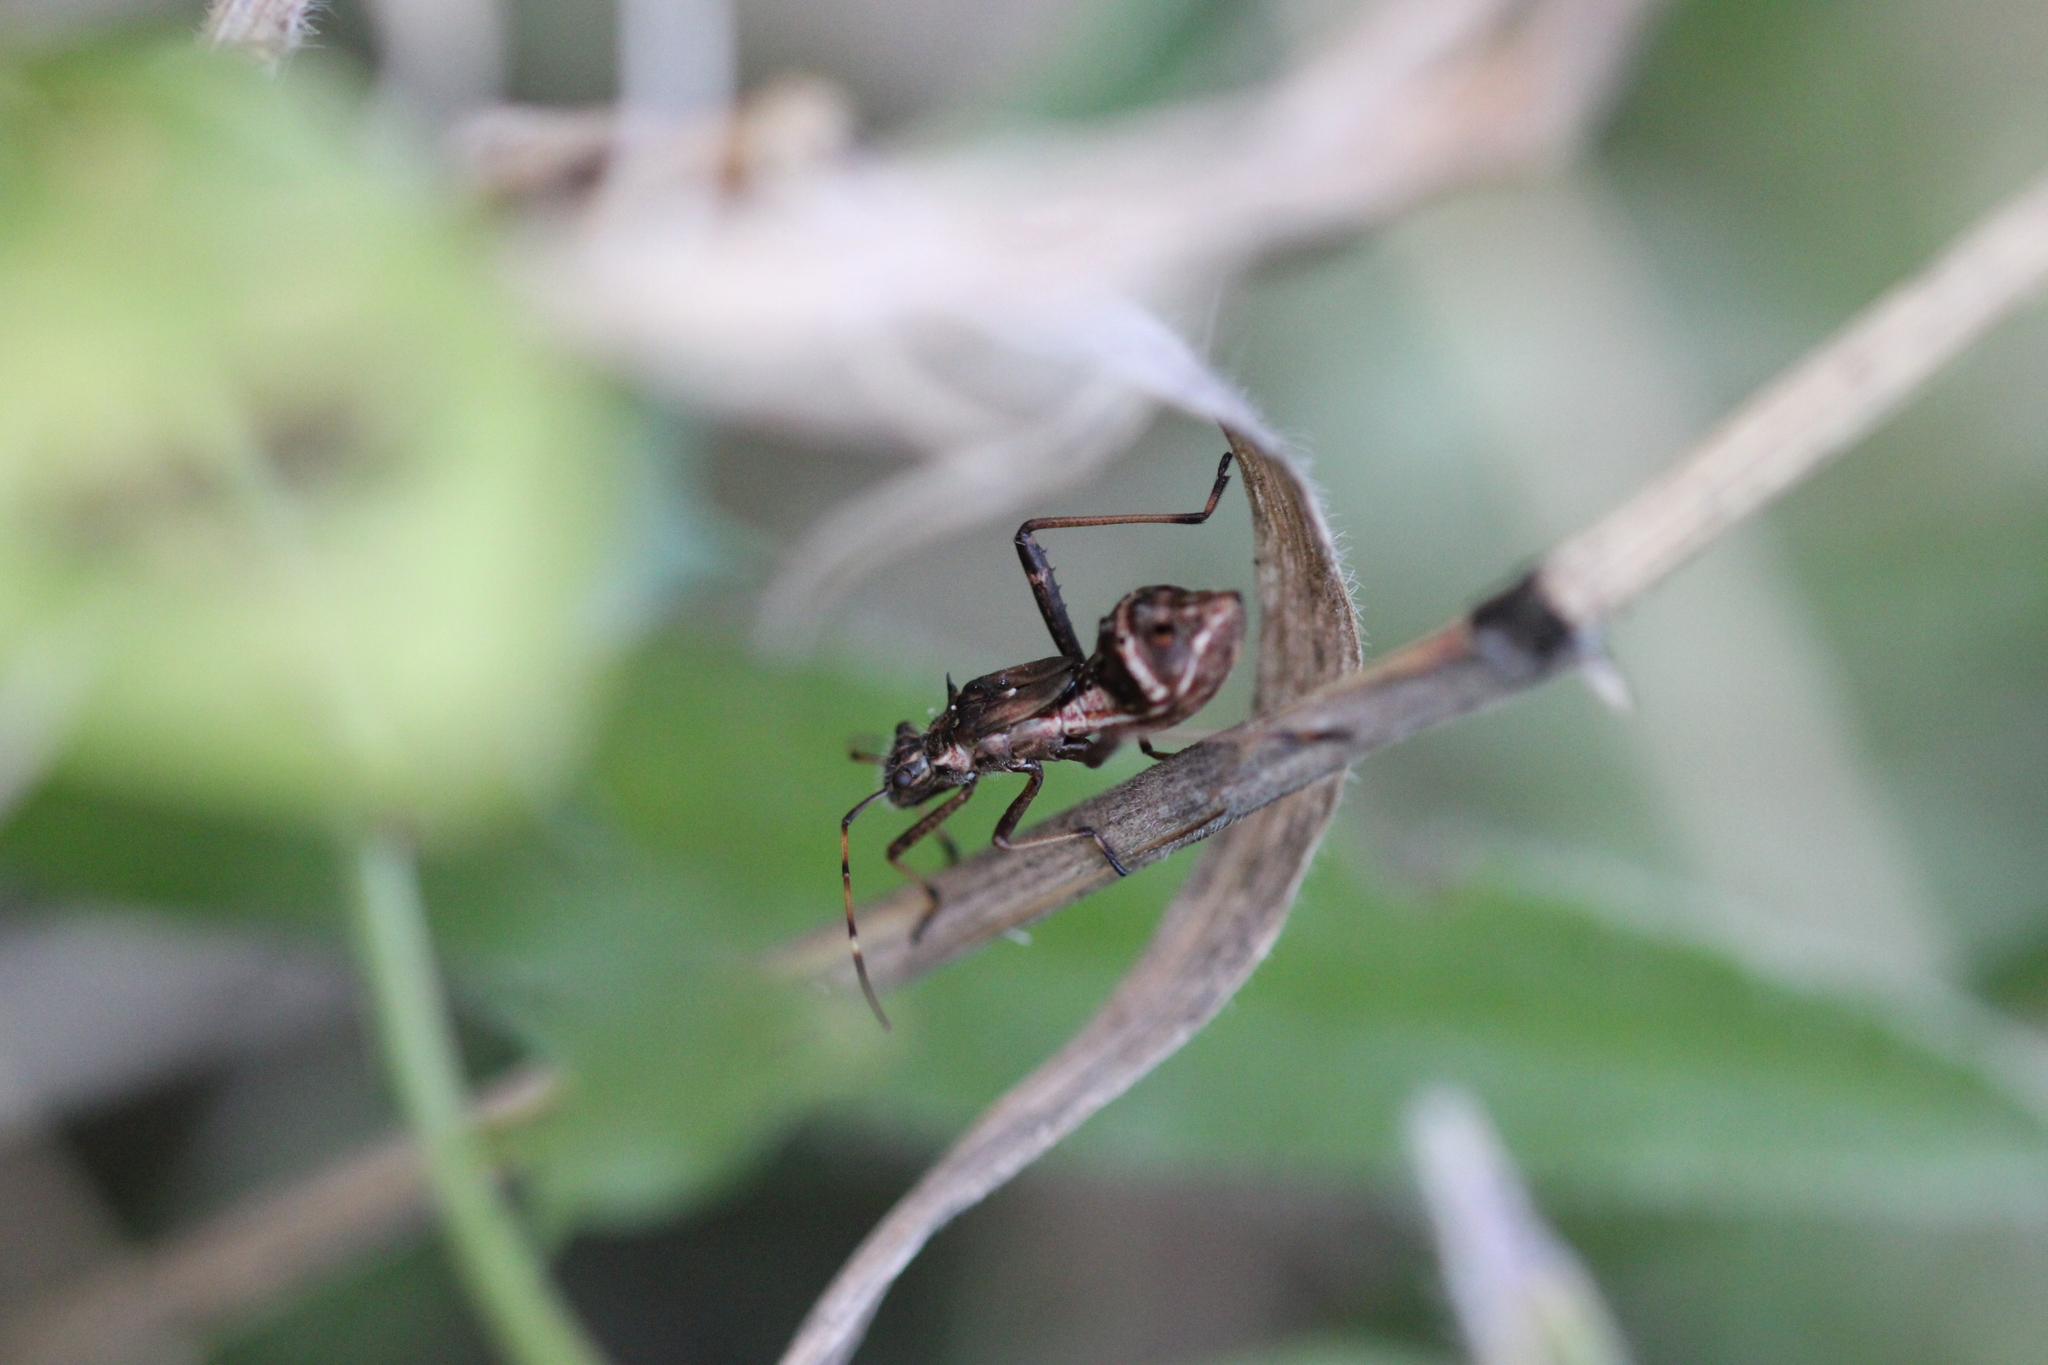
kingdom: Animalia
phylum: Arthropoda
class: Insecta
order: Hemiptera
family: Alydidae
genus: Camptopus
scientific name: Camptopus lateralis
